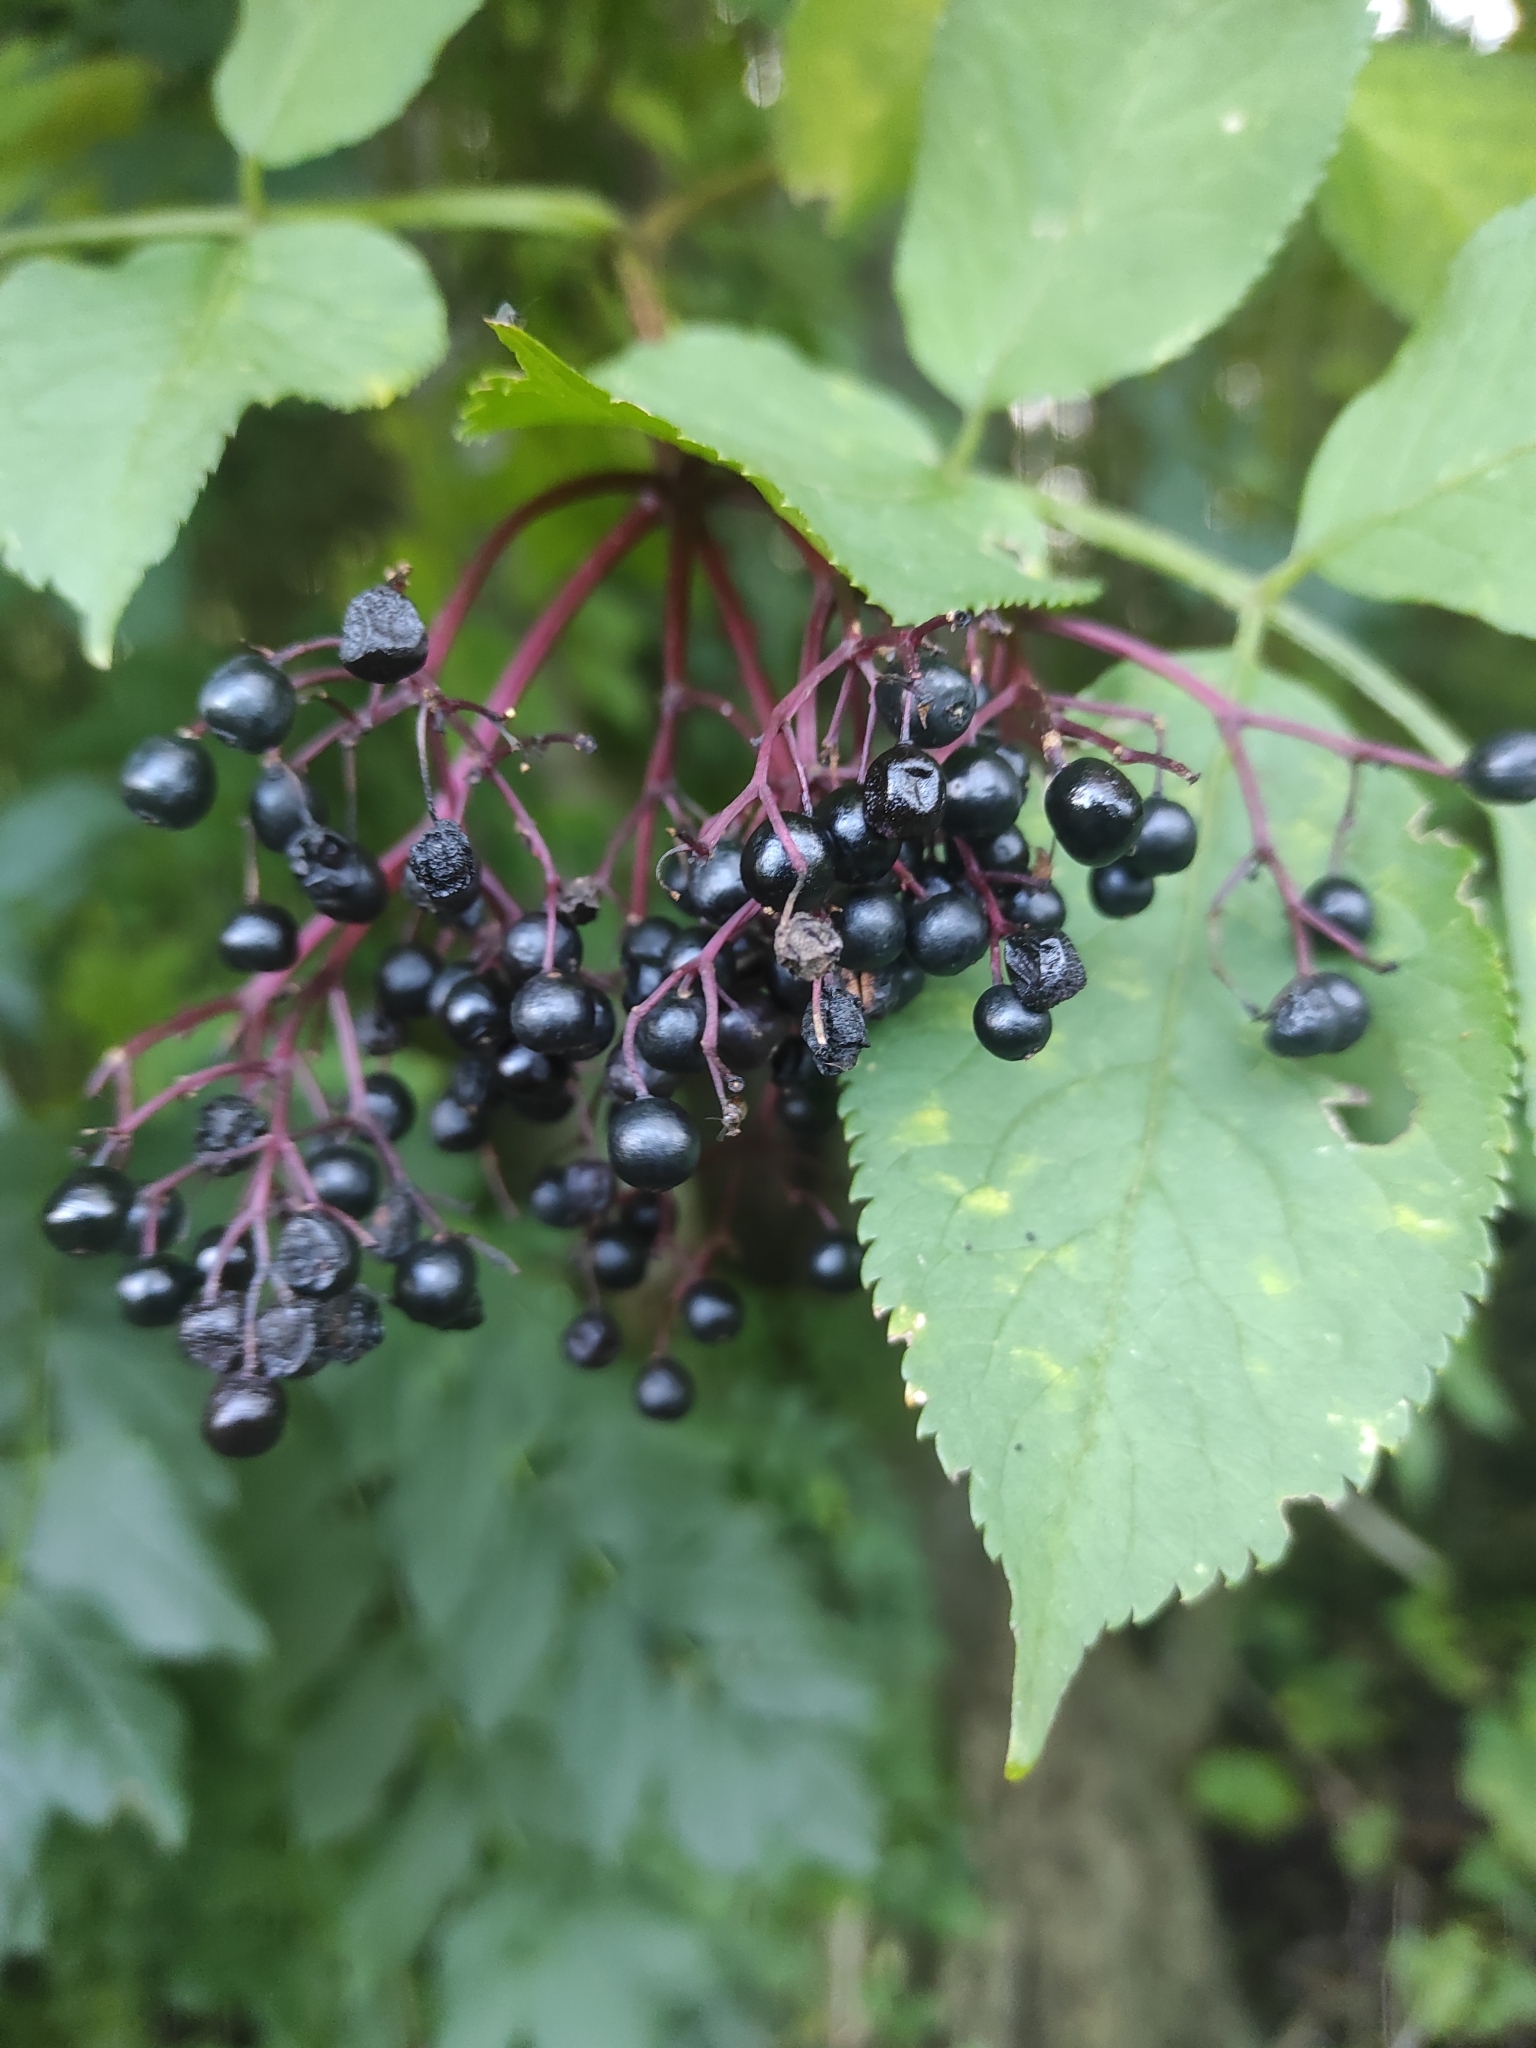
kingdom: Plantae
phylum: Tracheophyta
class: Magnoliopsida
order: Dipsacales
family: Viburnaceae
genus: Sambucus
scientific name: Sambucus nigra
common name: Elder
